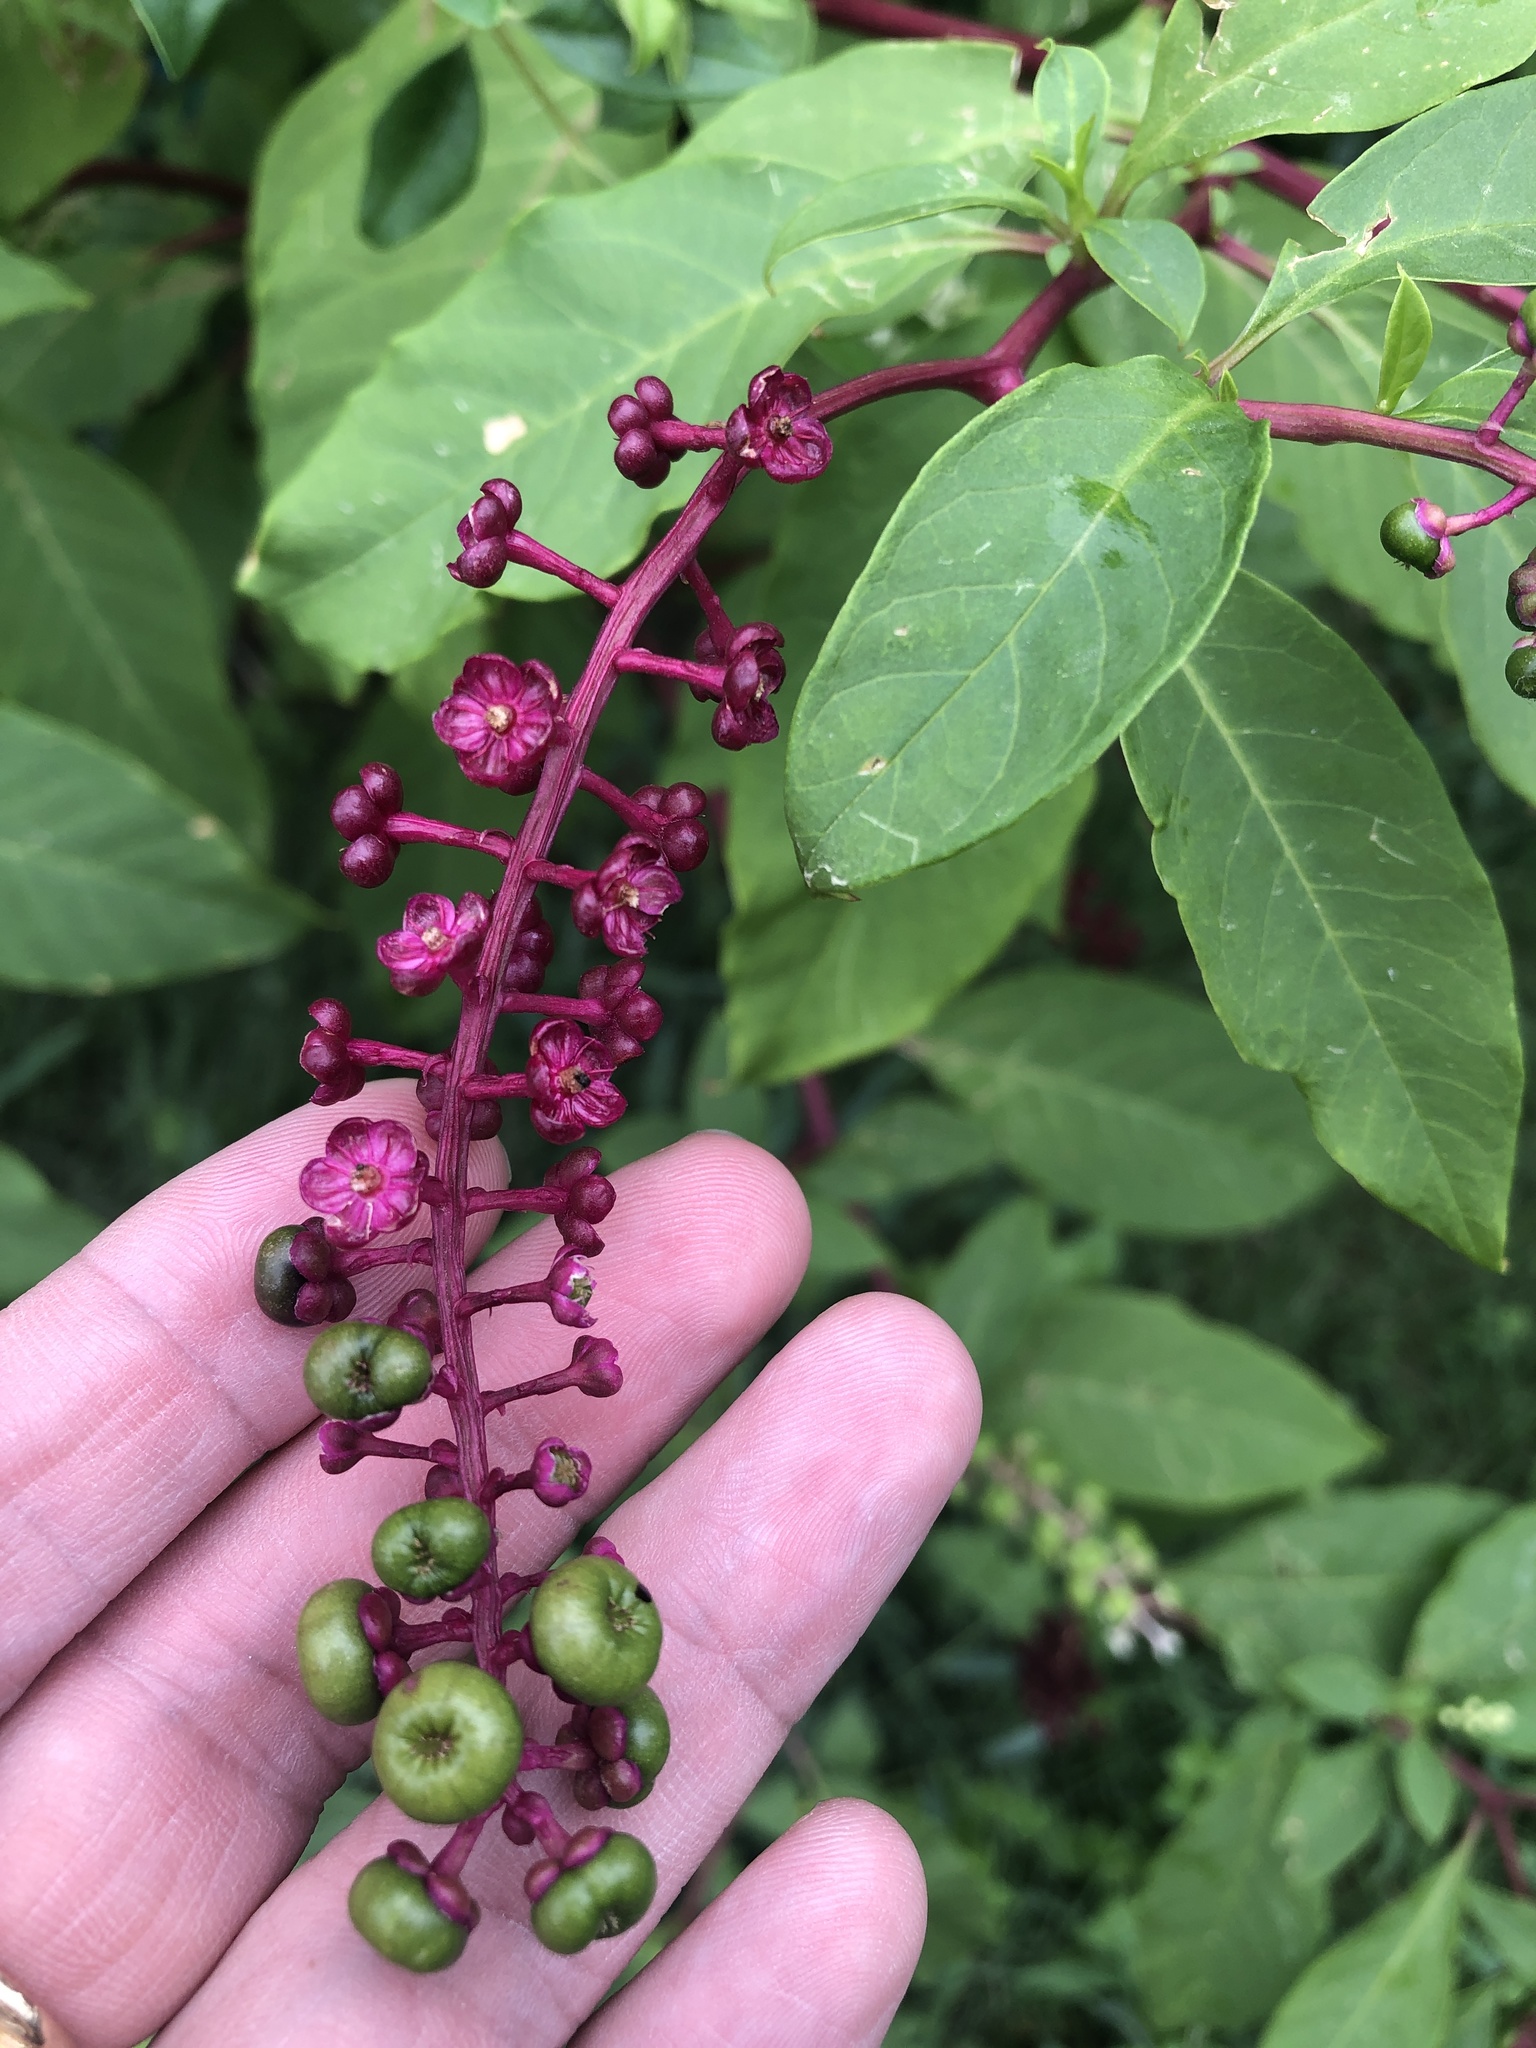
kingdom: Plantae
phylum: Tracheophyta
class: Magnoliopsida
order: Caryophyllales
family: Phytolaccaceae
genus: Phytolacca
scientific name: Phytolacca americana
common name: American pokeweed
